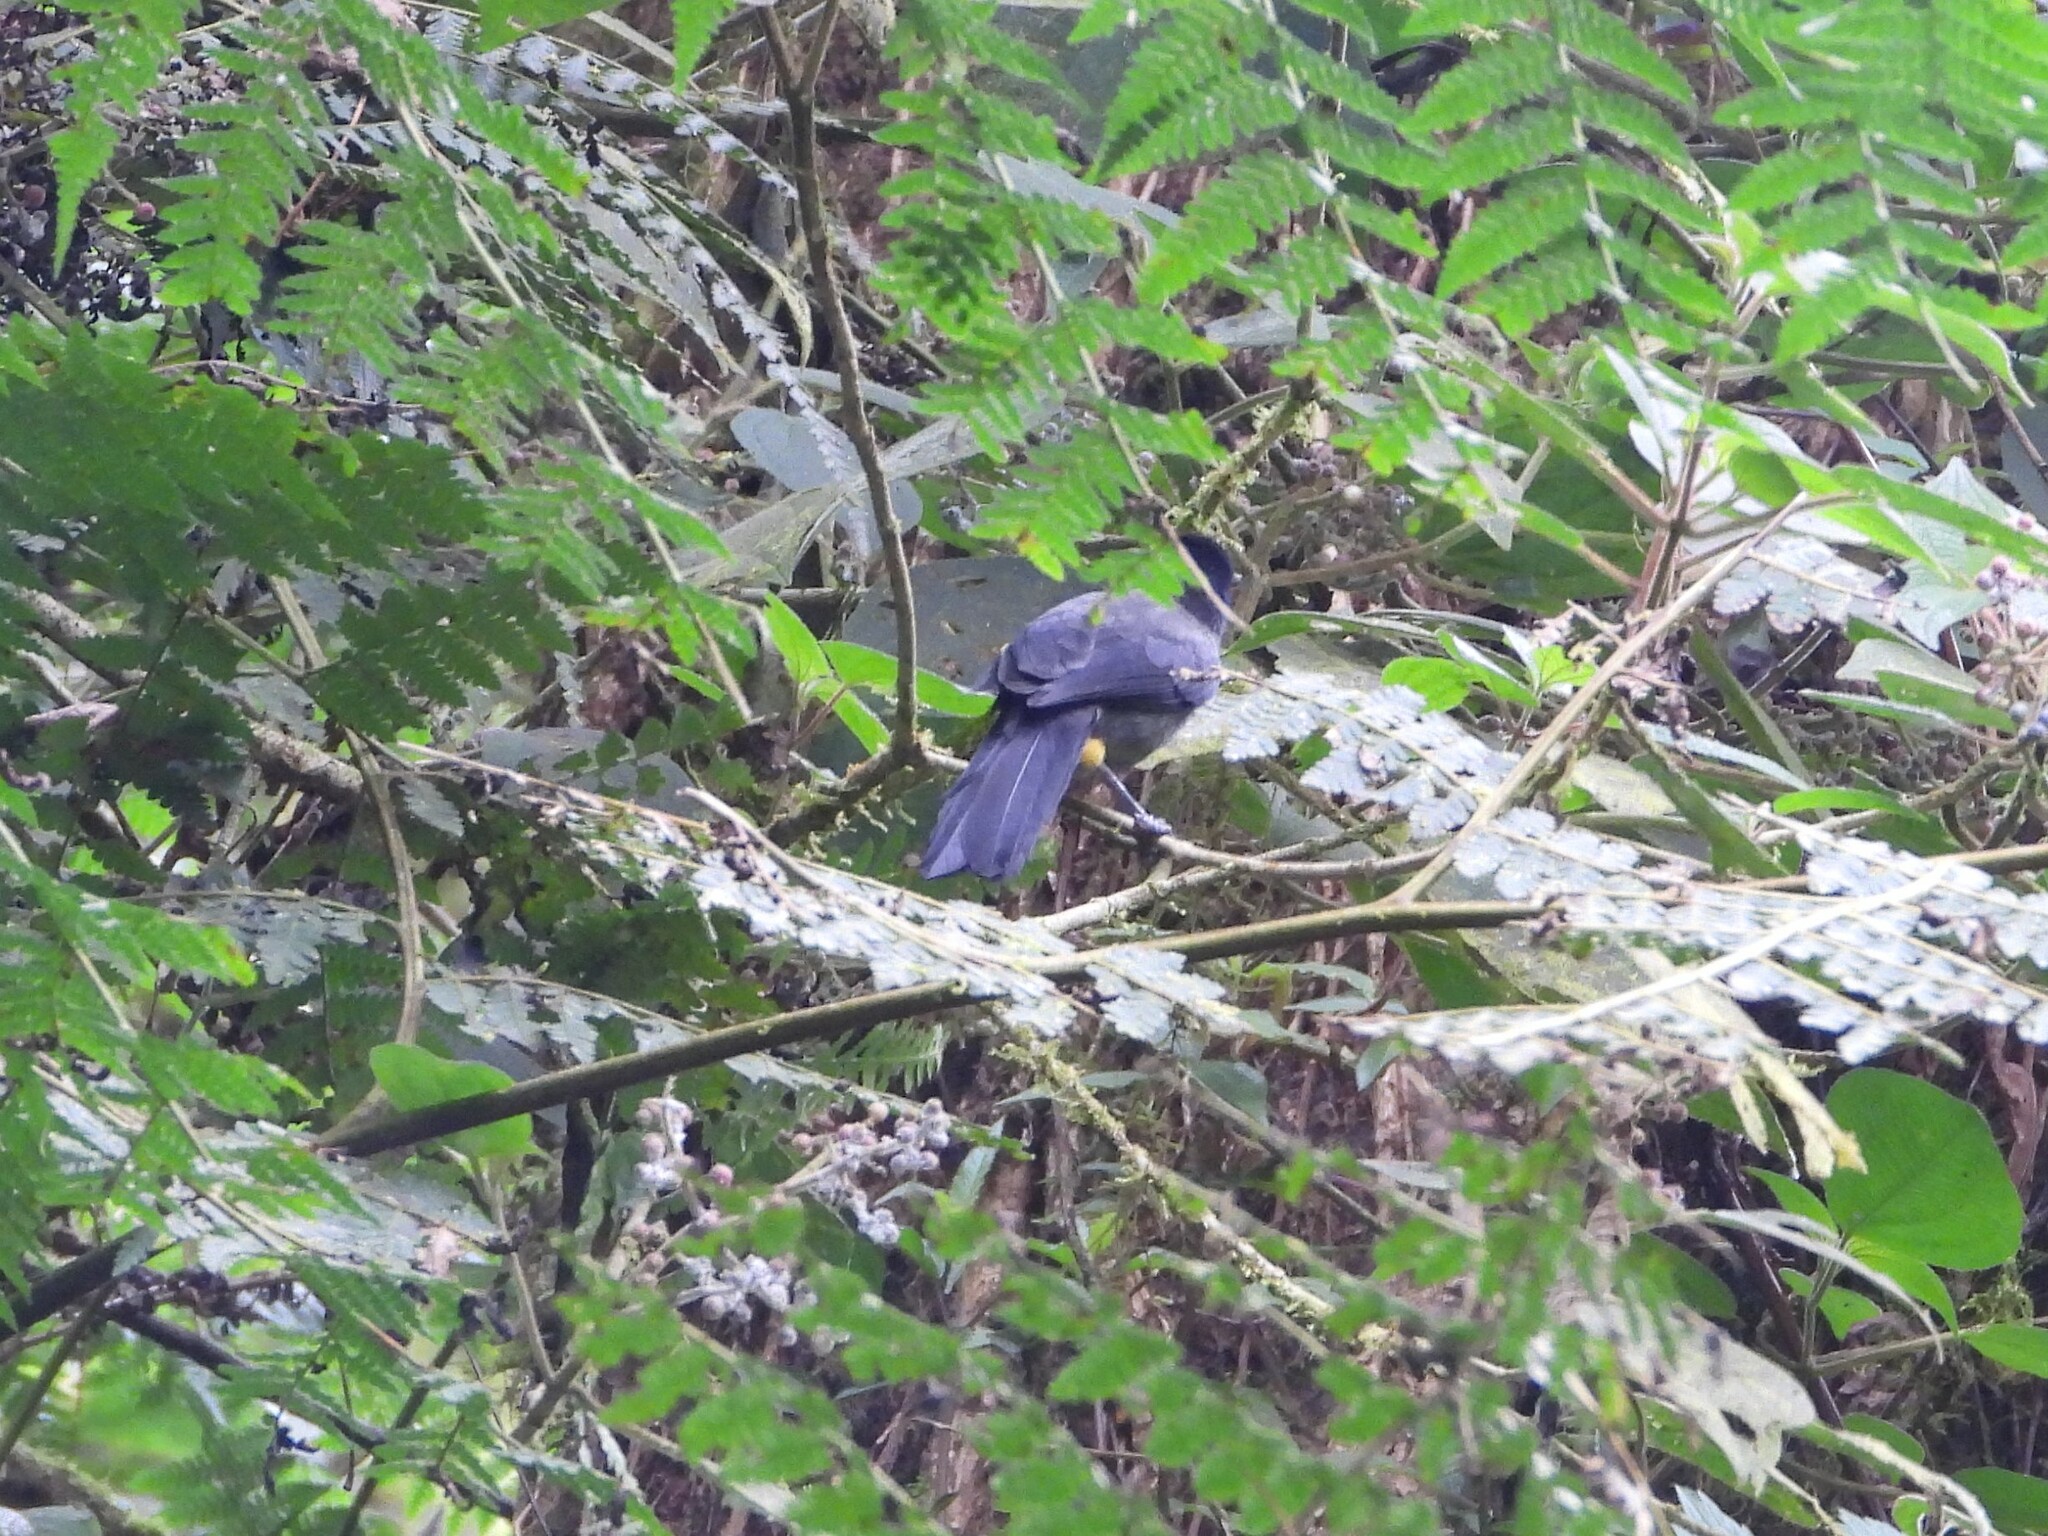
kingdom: Animalia
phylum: Chordata
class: Aves
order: Passeriformes
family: Passerellidae
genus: Atlapetes
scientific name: Atlapetes tibialis
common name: Yellow-thighed brushfinch
